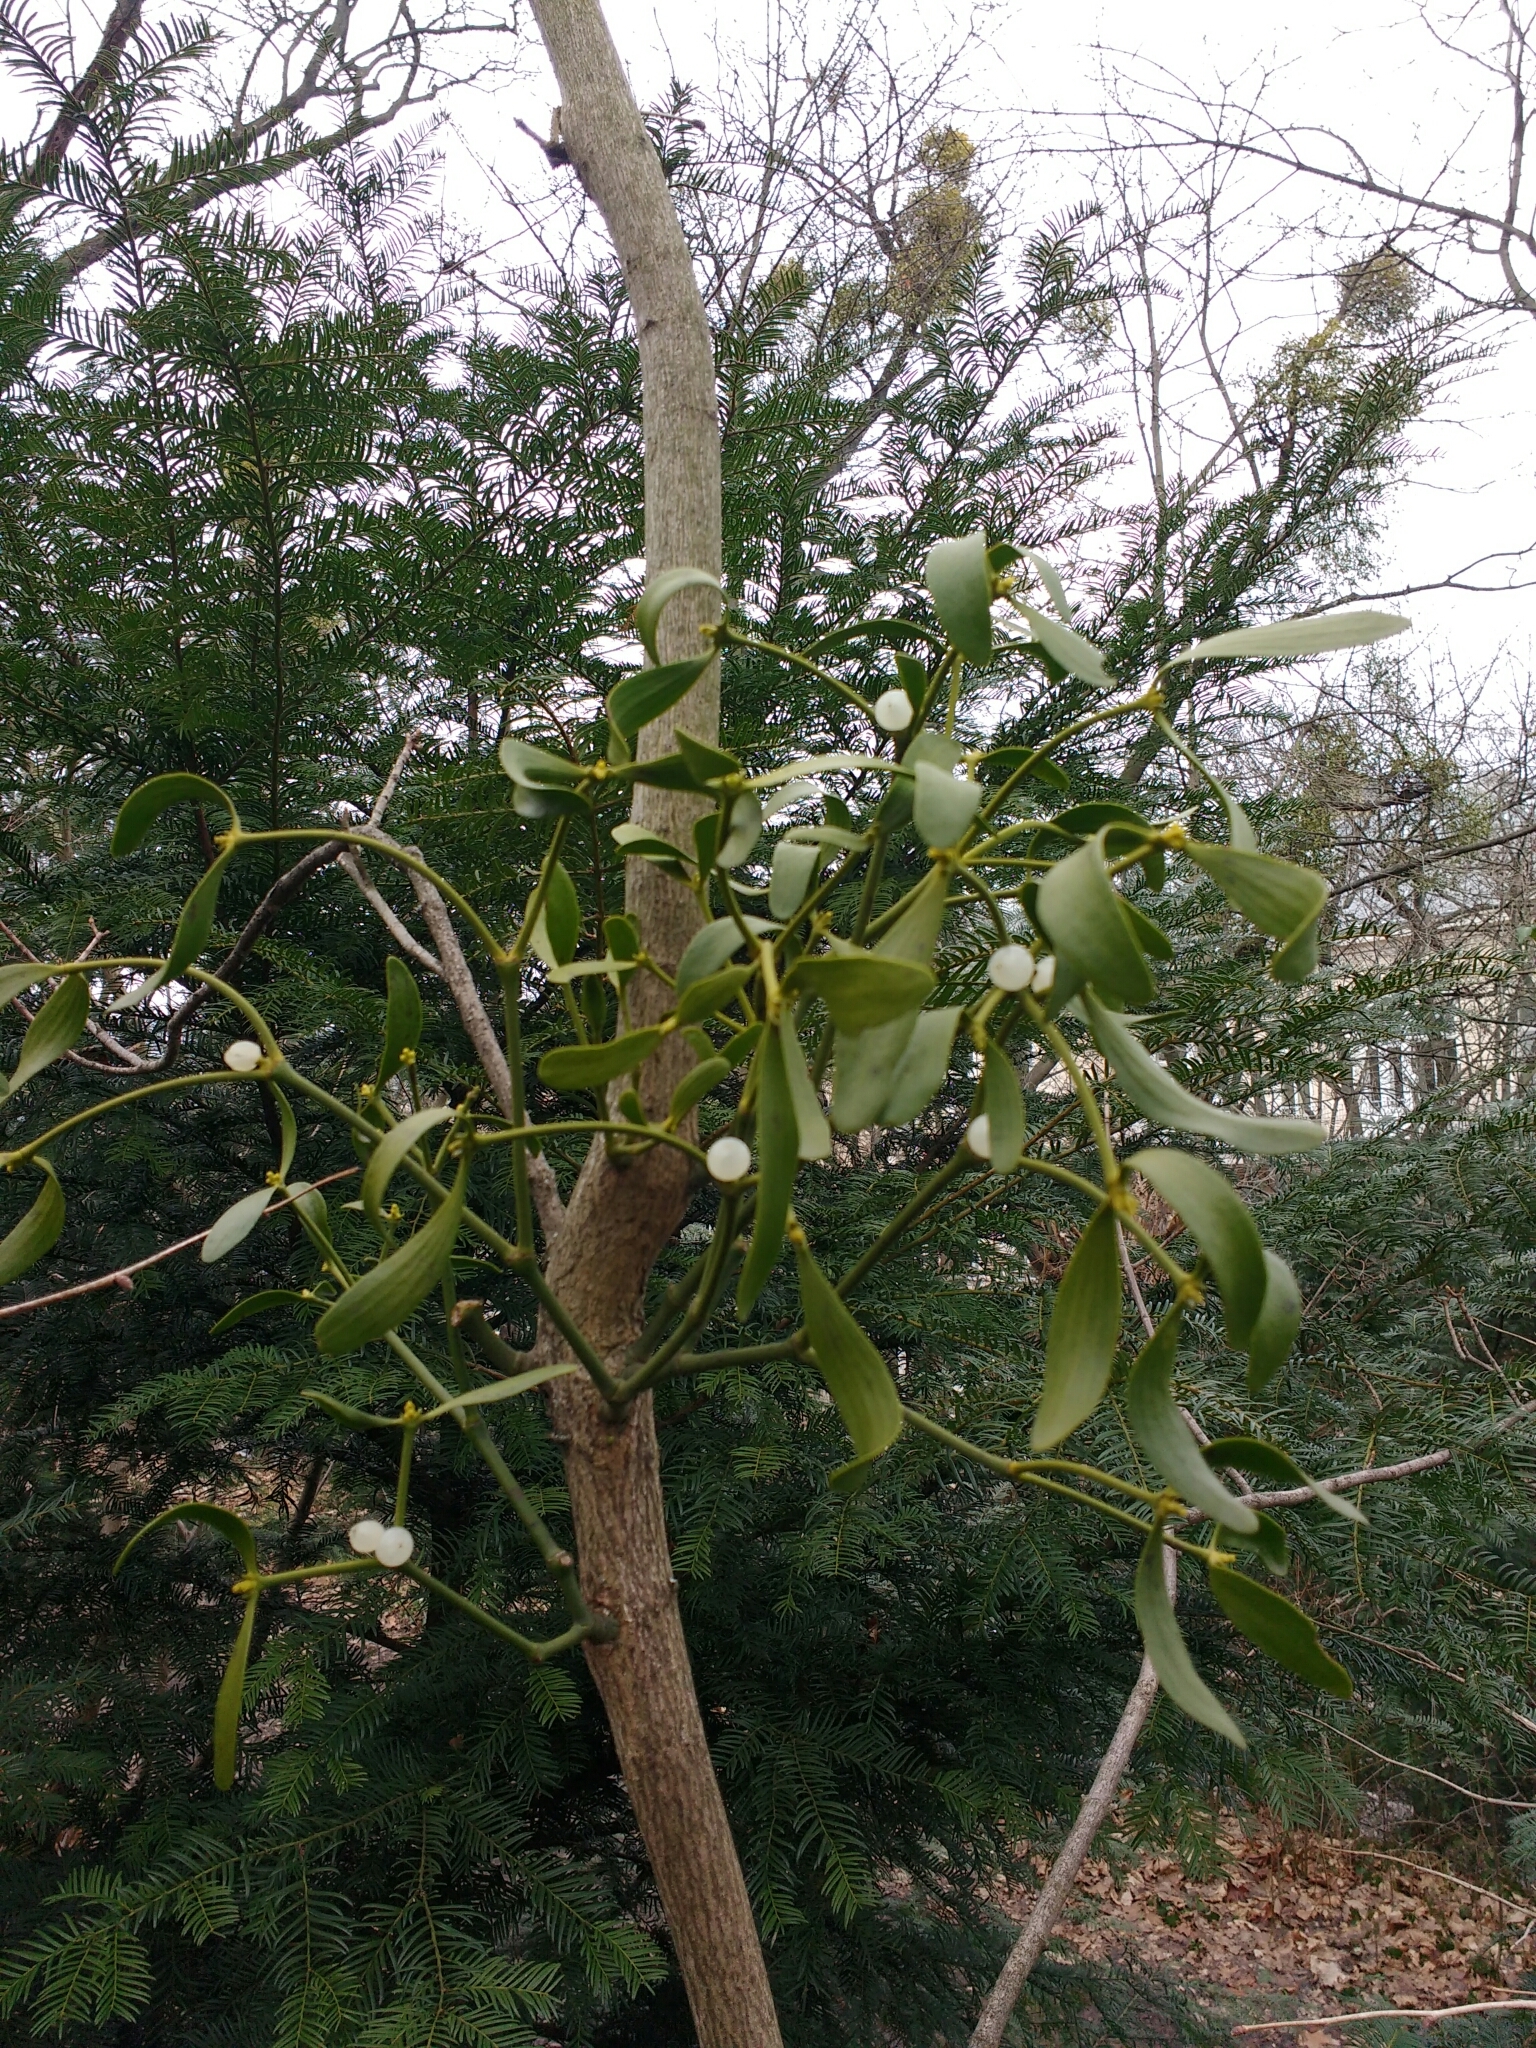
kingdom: Plantae
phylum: Tracheophyta
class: Magnoliopsida
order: Santalales
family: Viscaceae
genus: Viscum
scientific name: Viscum album
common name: Mistletoe
